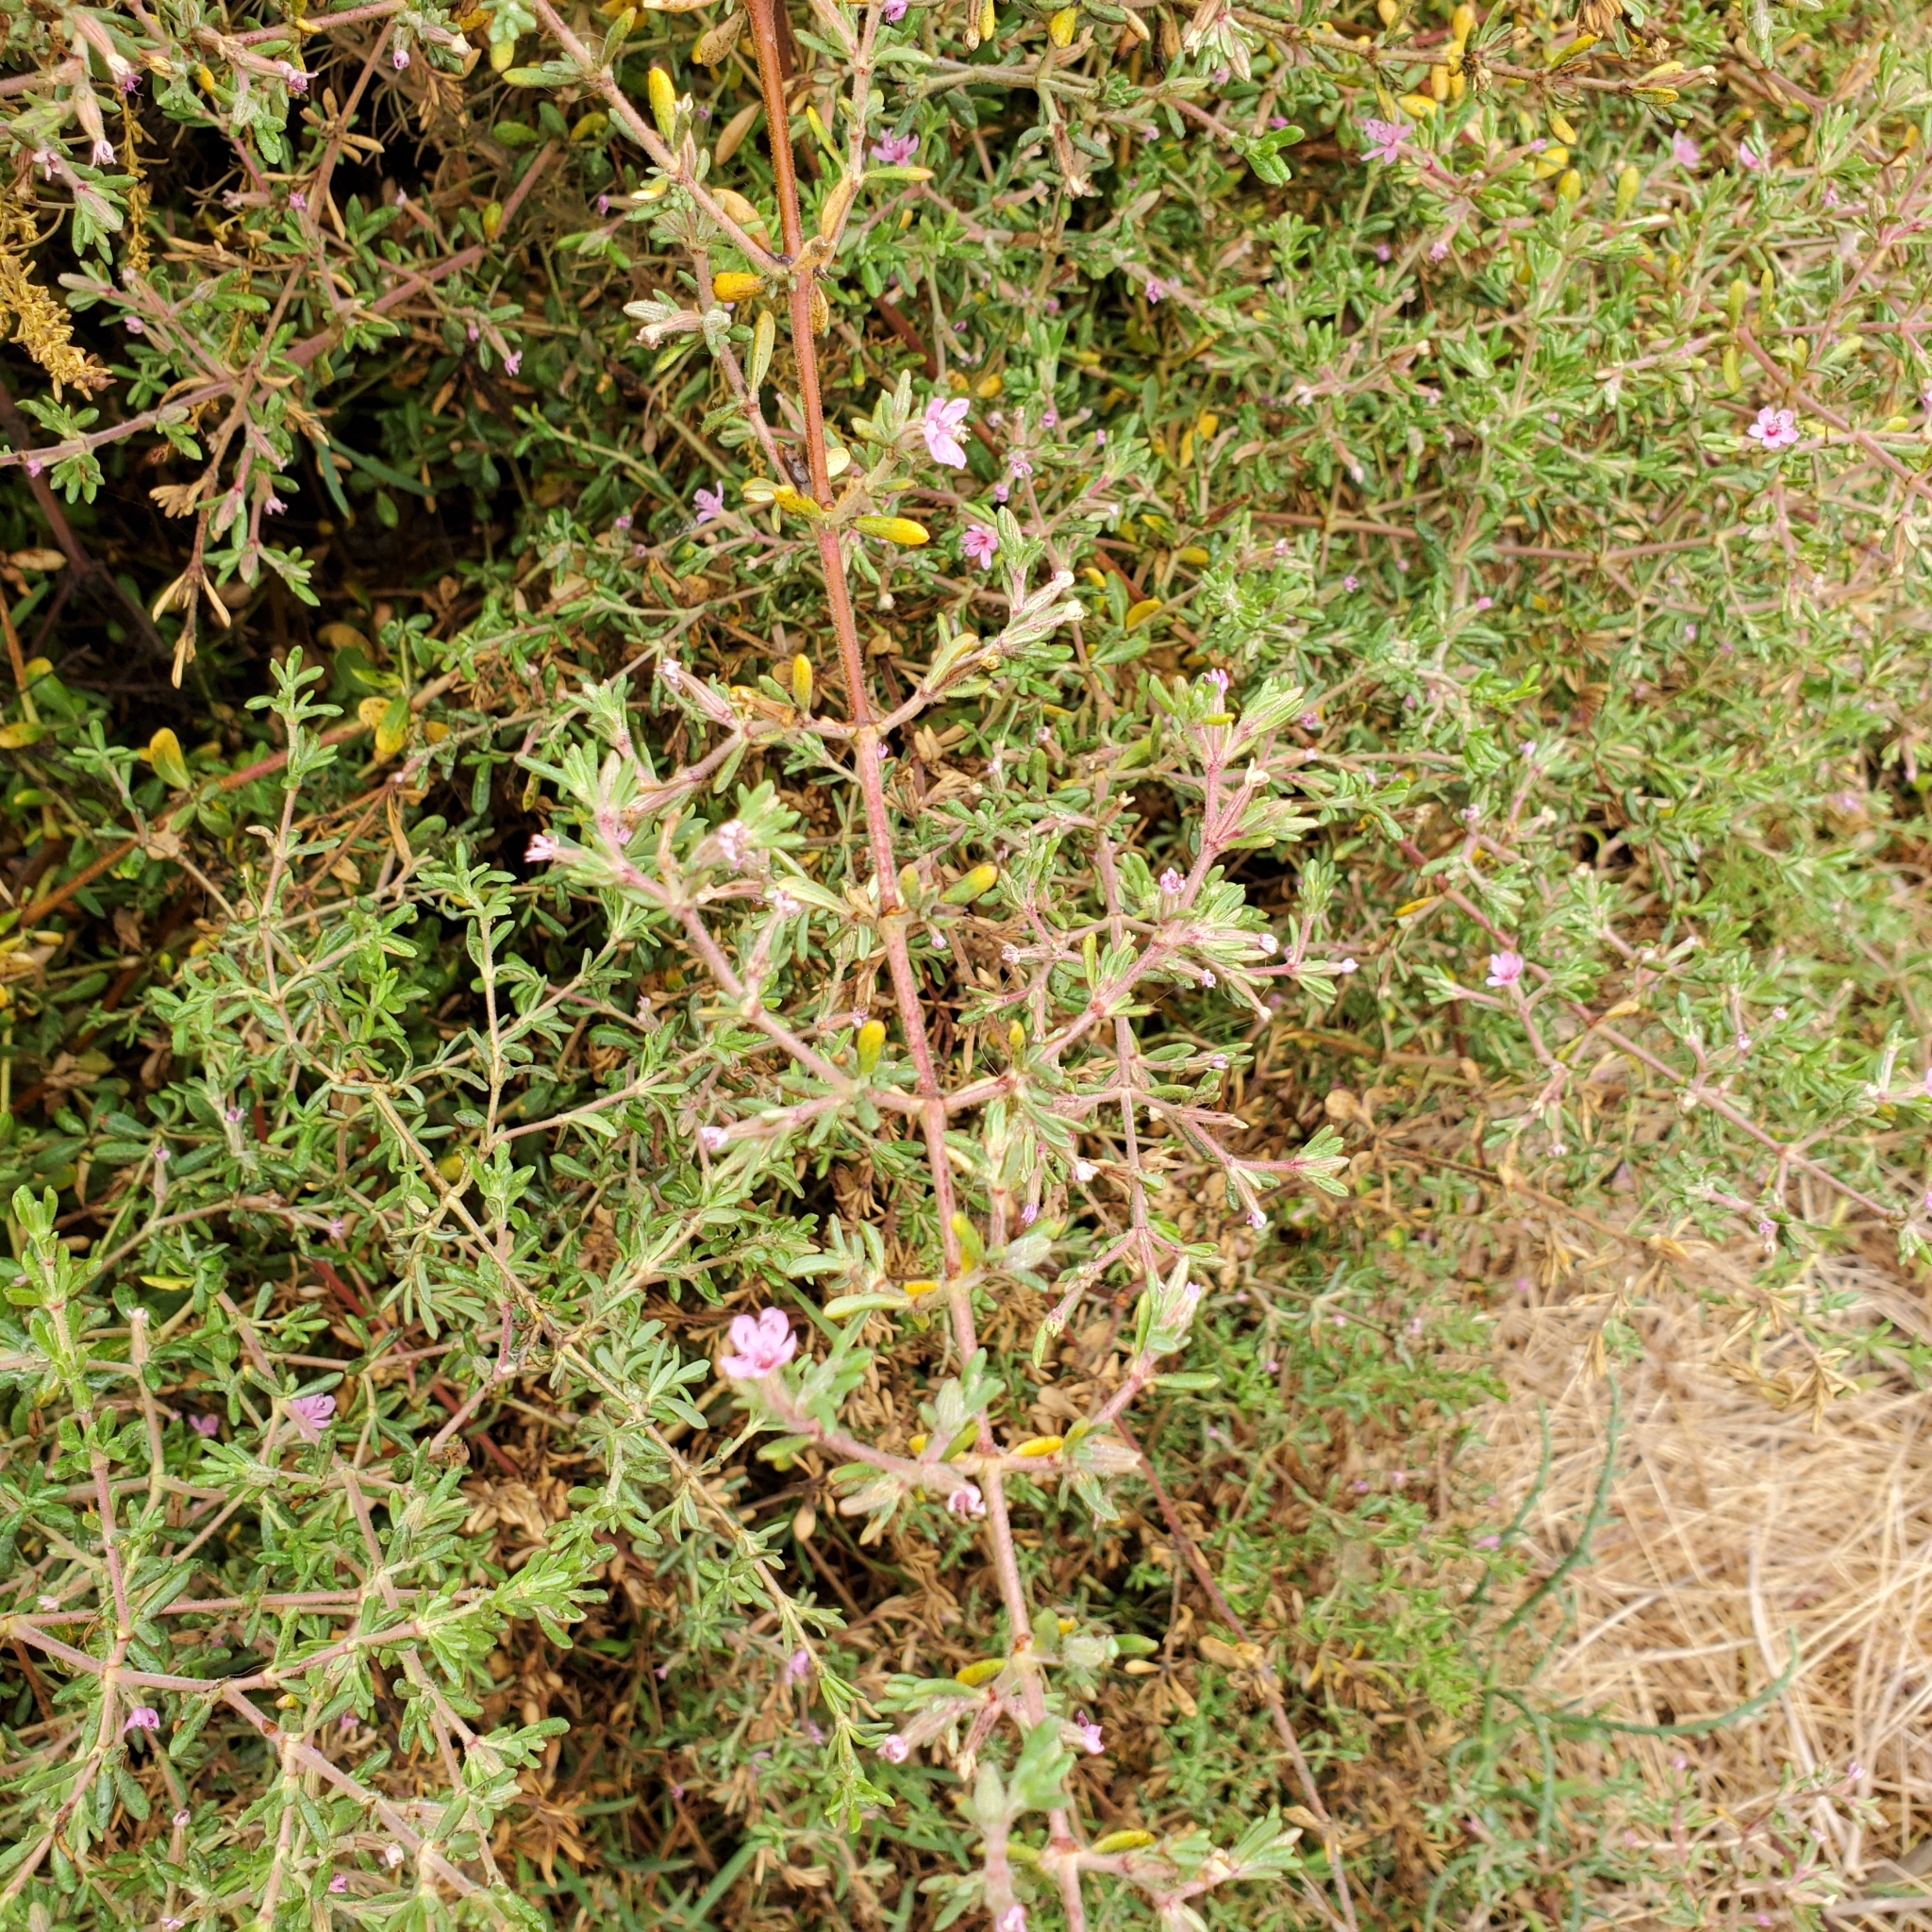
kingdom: Plantae
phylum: Tracheophyta
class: Magnoliopsida
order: Caryophyllales
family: Frankeniaceae
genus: Frankenia
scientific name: Frankenia salina
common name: Alkali seaheath
